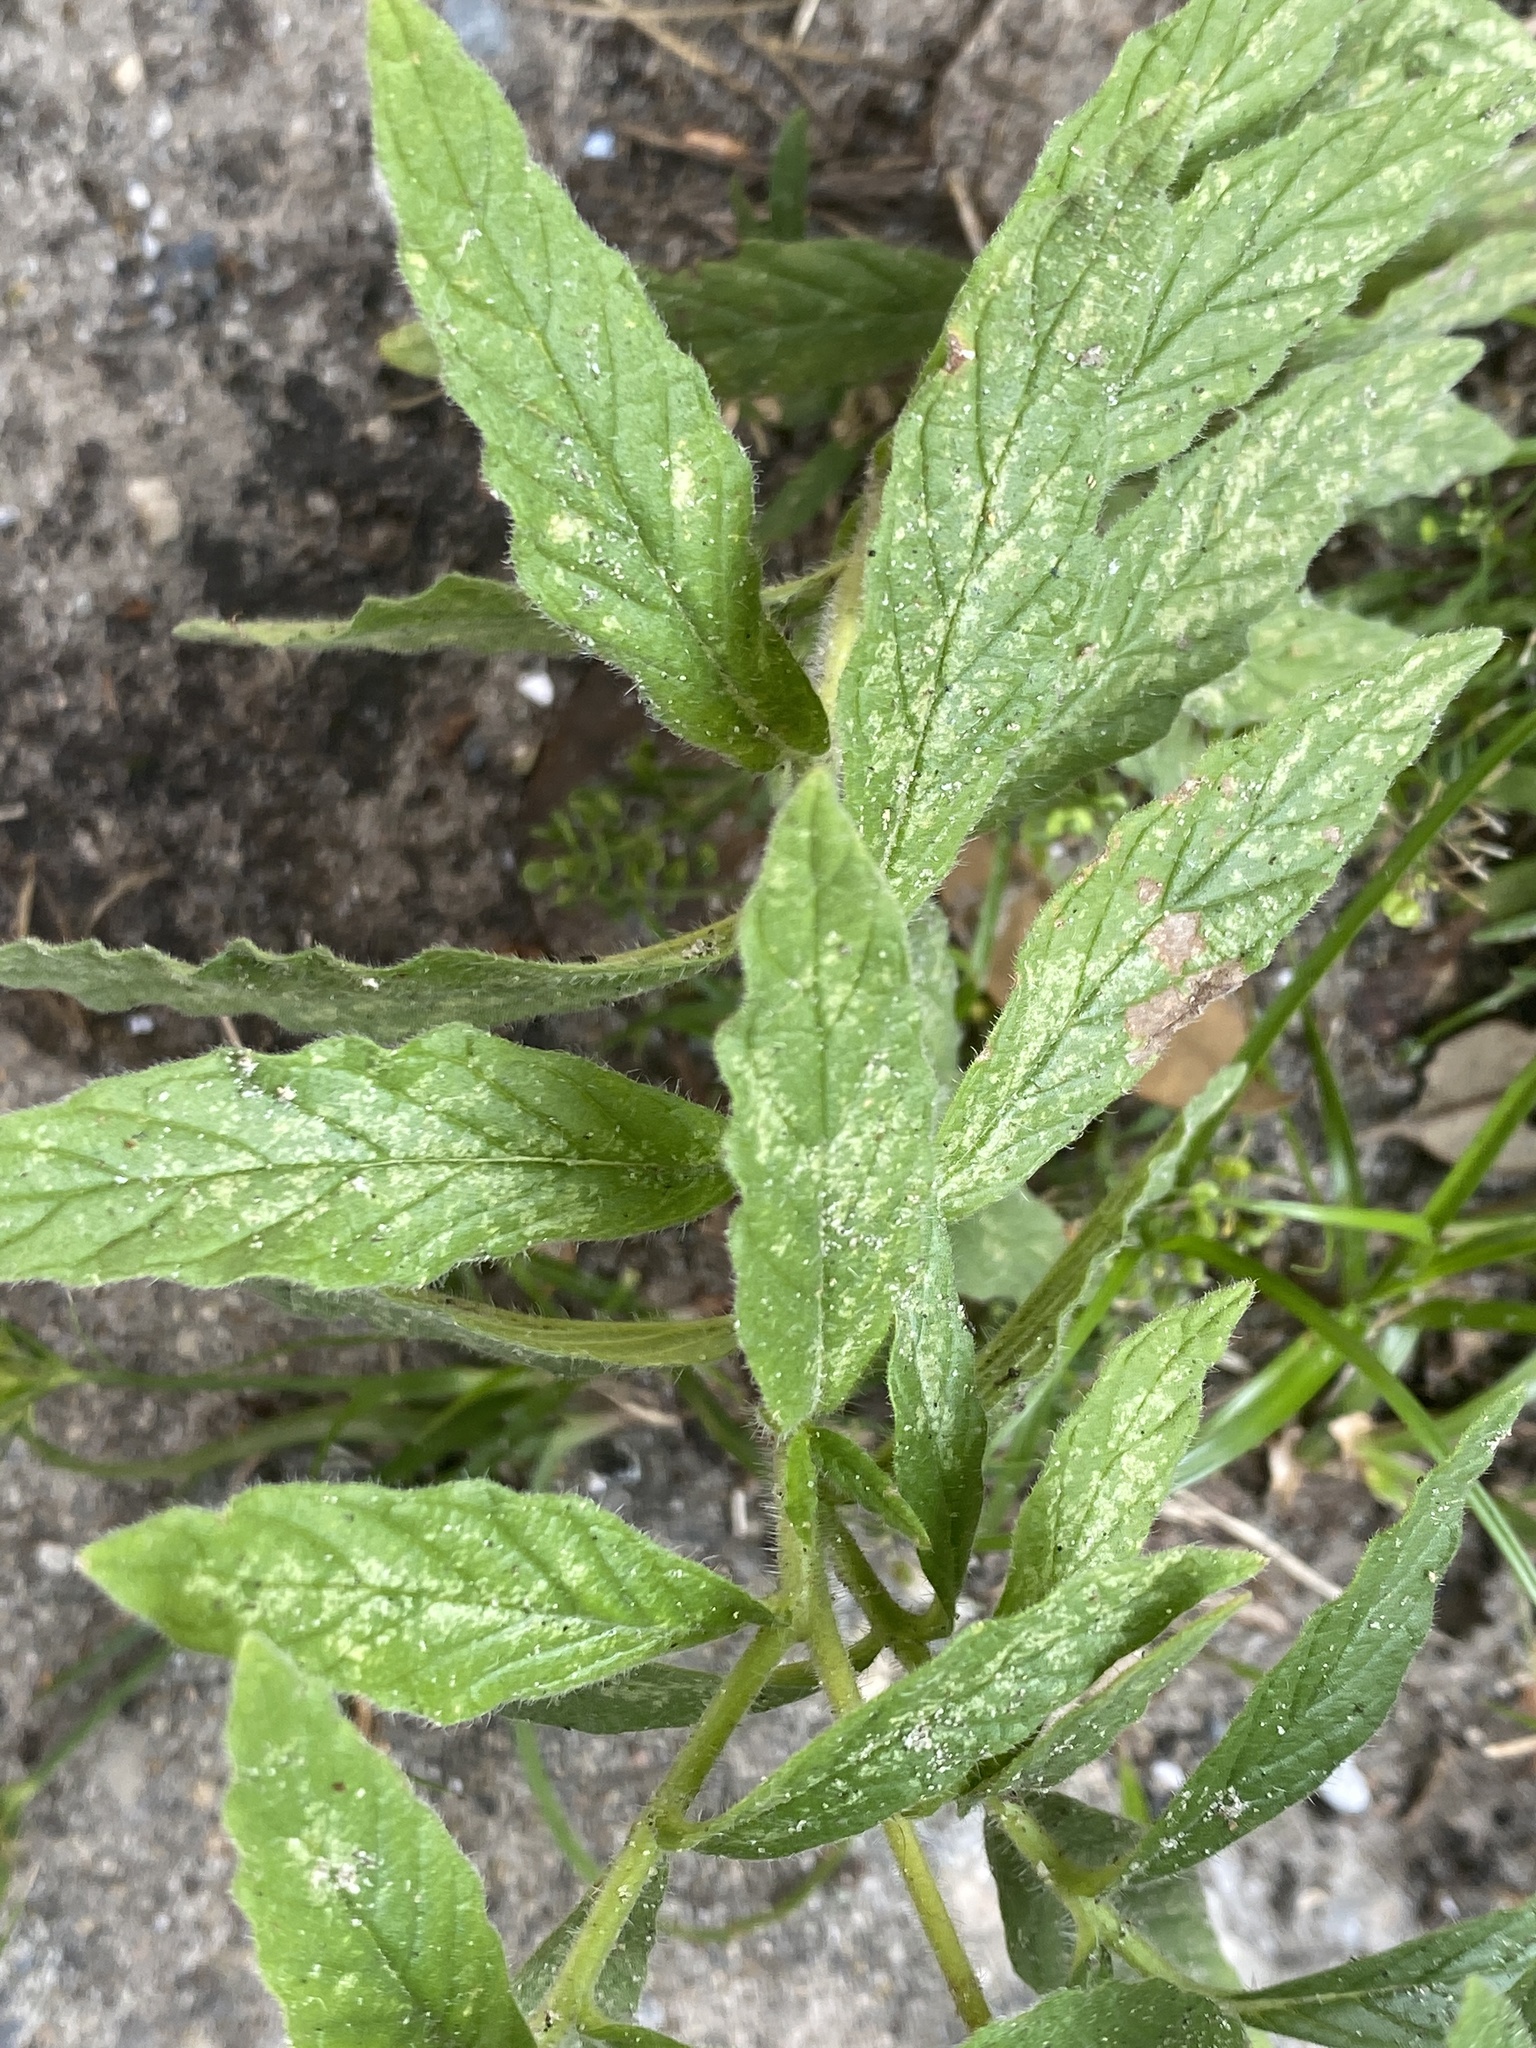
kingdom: Plantae
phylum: Tracheophyta
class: Magnoliopsida
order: Boraginales
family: Heliotropiaceae
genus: Heliotropium
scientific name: Heliotropium indicum
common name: Indian heliotrope
